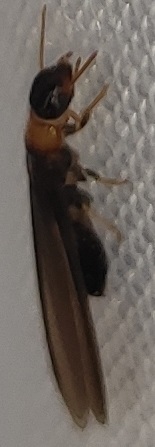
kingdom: Animalia
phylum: Arthropoda
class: Insecta
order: Blattodea
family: Kalotermitidae
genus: Kalotermes
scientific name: Kalotermes flavicollis
